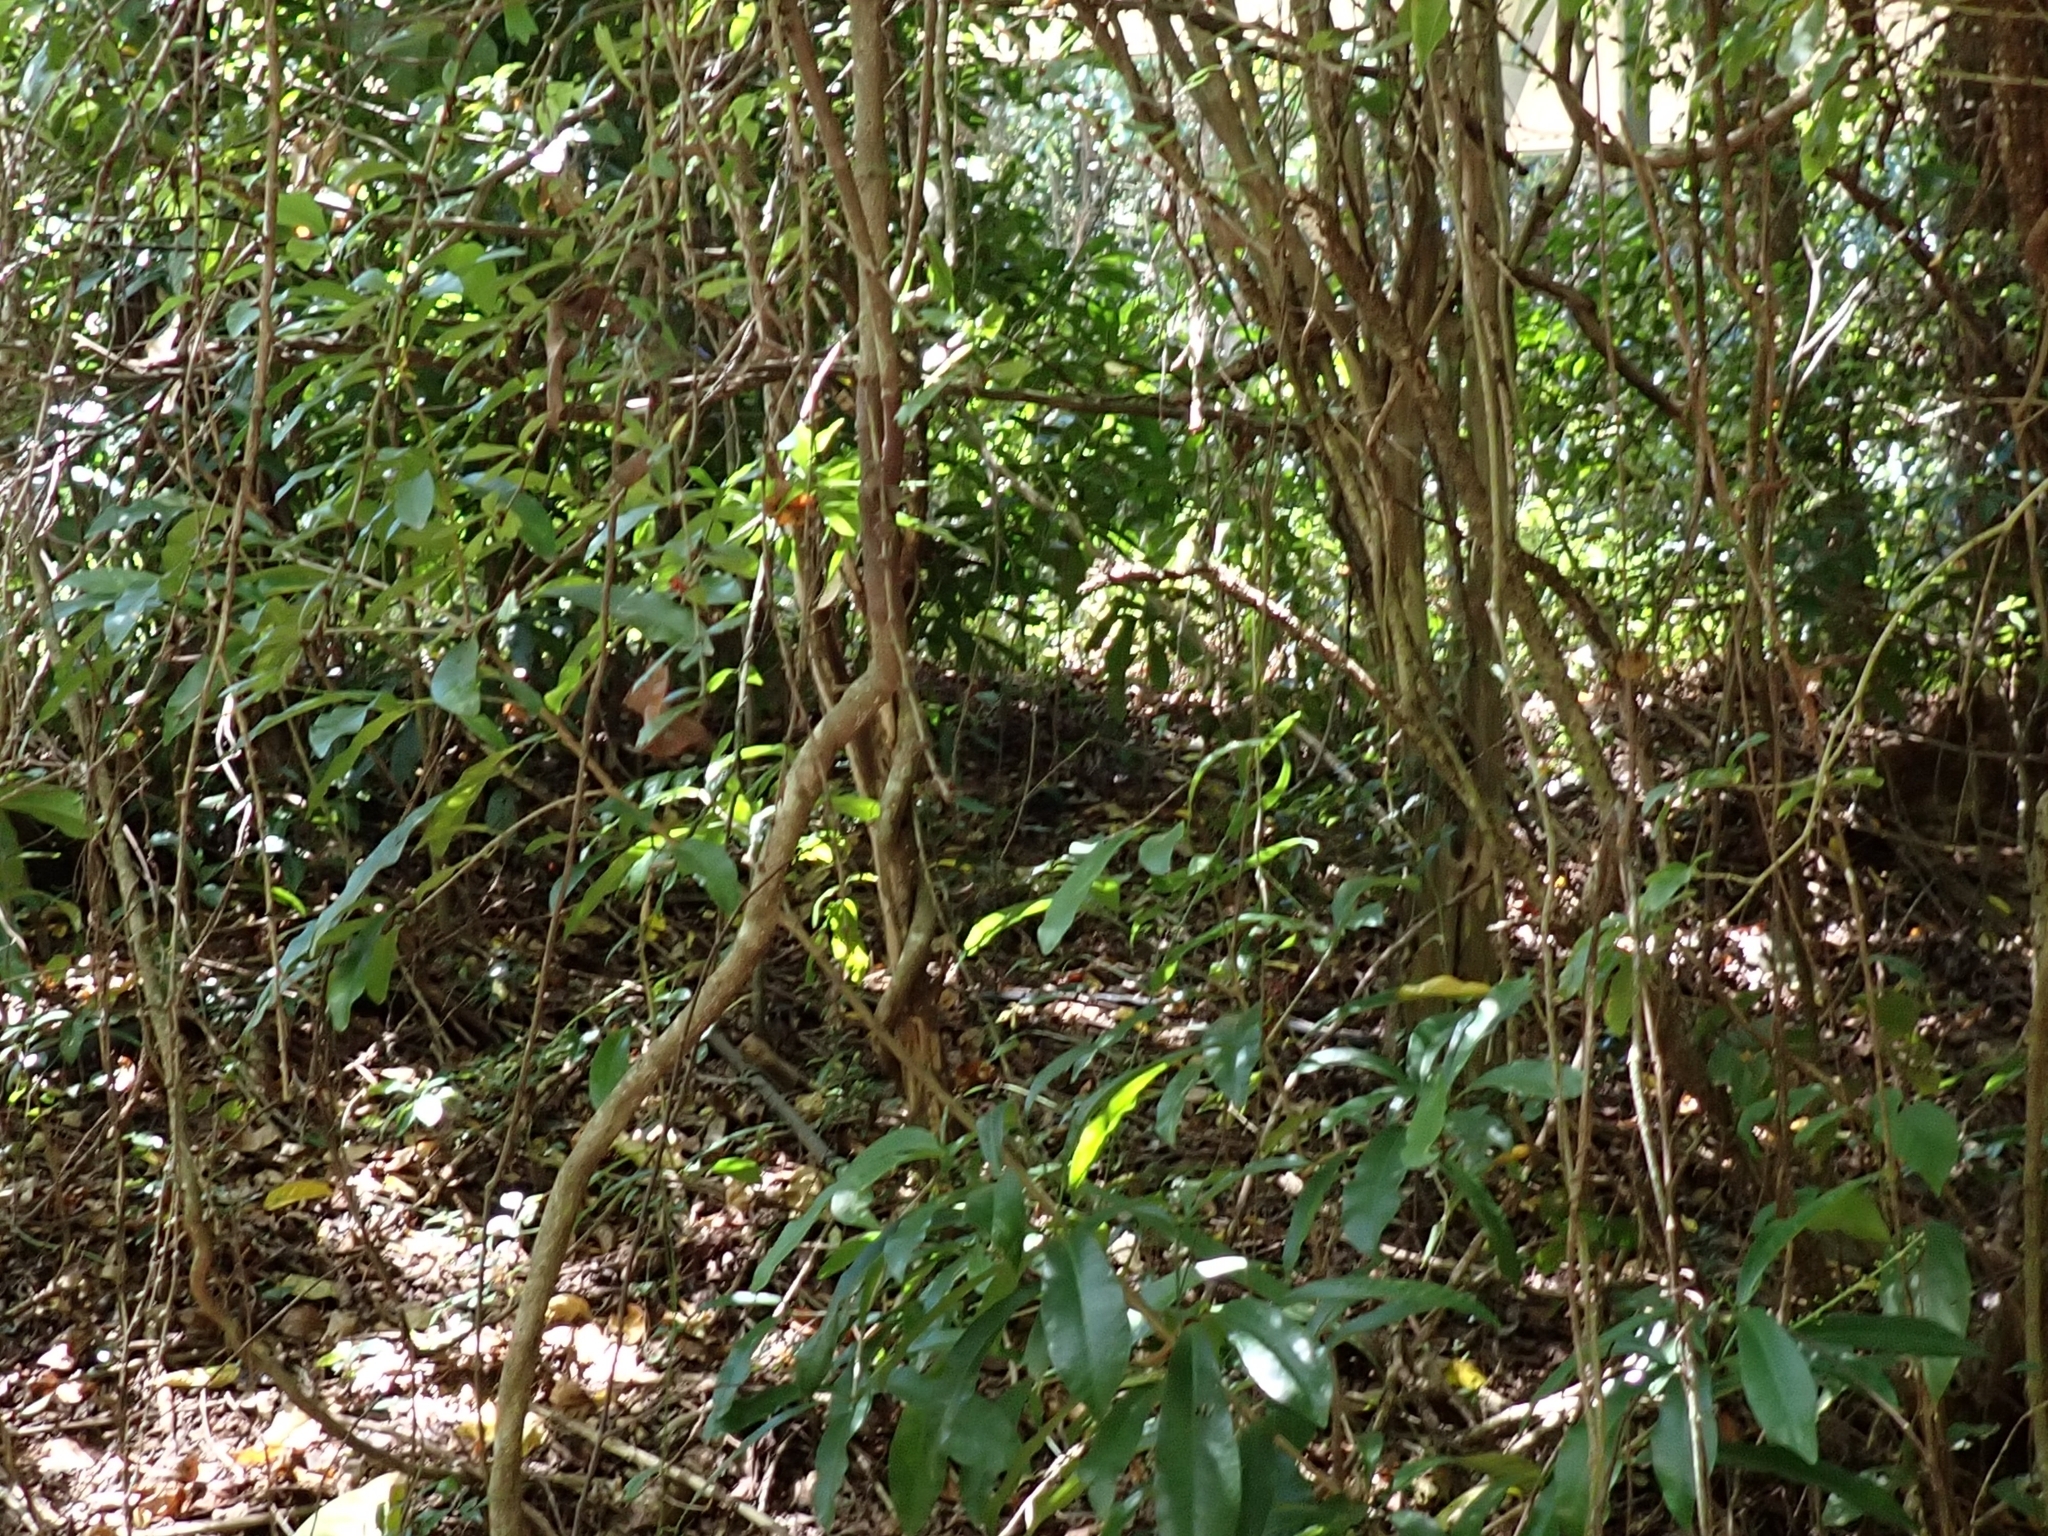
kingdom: Animalia
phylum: Chordata
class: Aves
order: Columbiformes
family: Columbidae
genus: Chalcophaps
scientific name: Chalcophaps longirostris
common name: Pacific emerald dove
